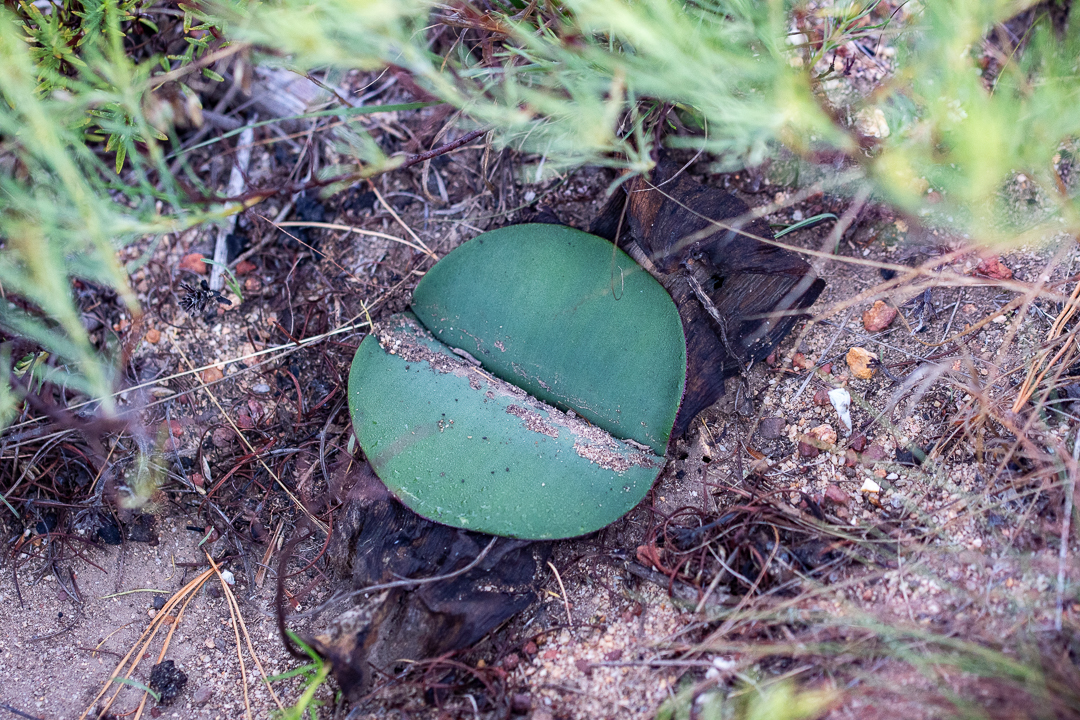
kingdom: Plantae
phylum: Tracheophyta
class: Liliopsida
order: Asparagales
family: Amaryllidaceae
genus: Haemanthus
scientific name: Haemanthus sanguineus
